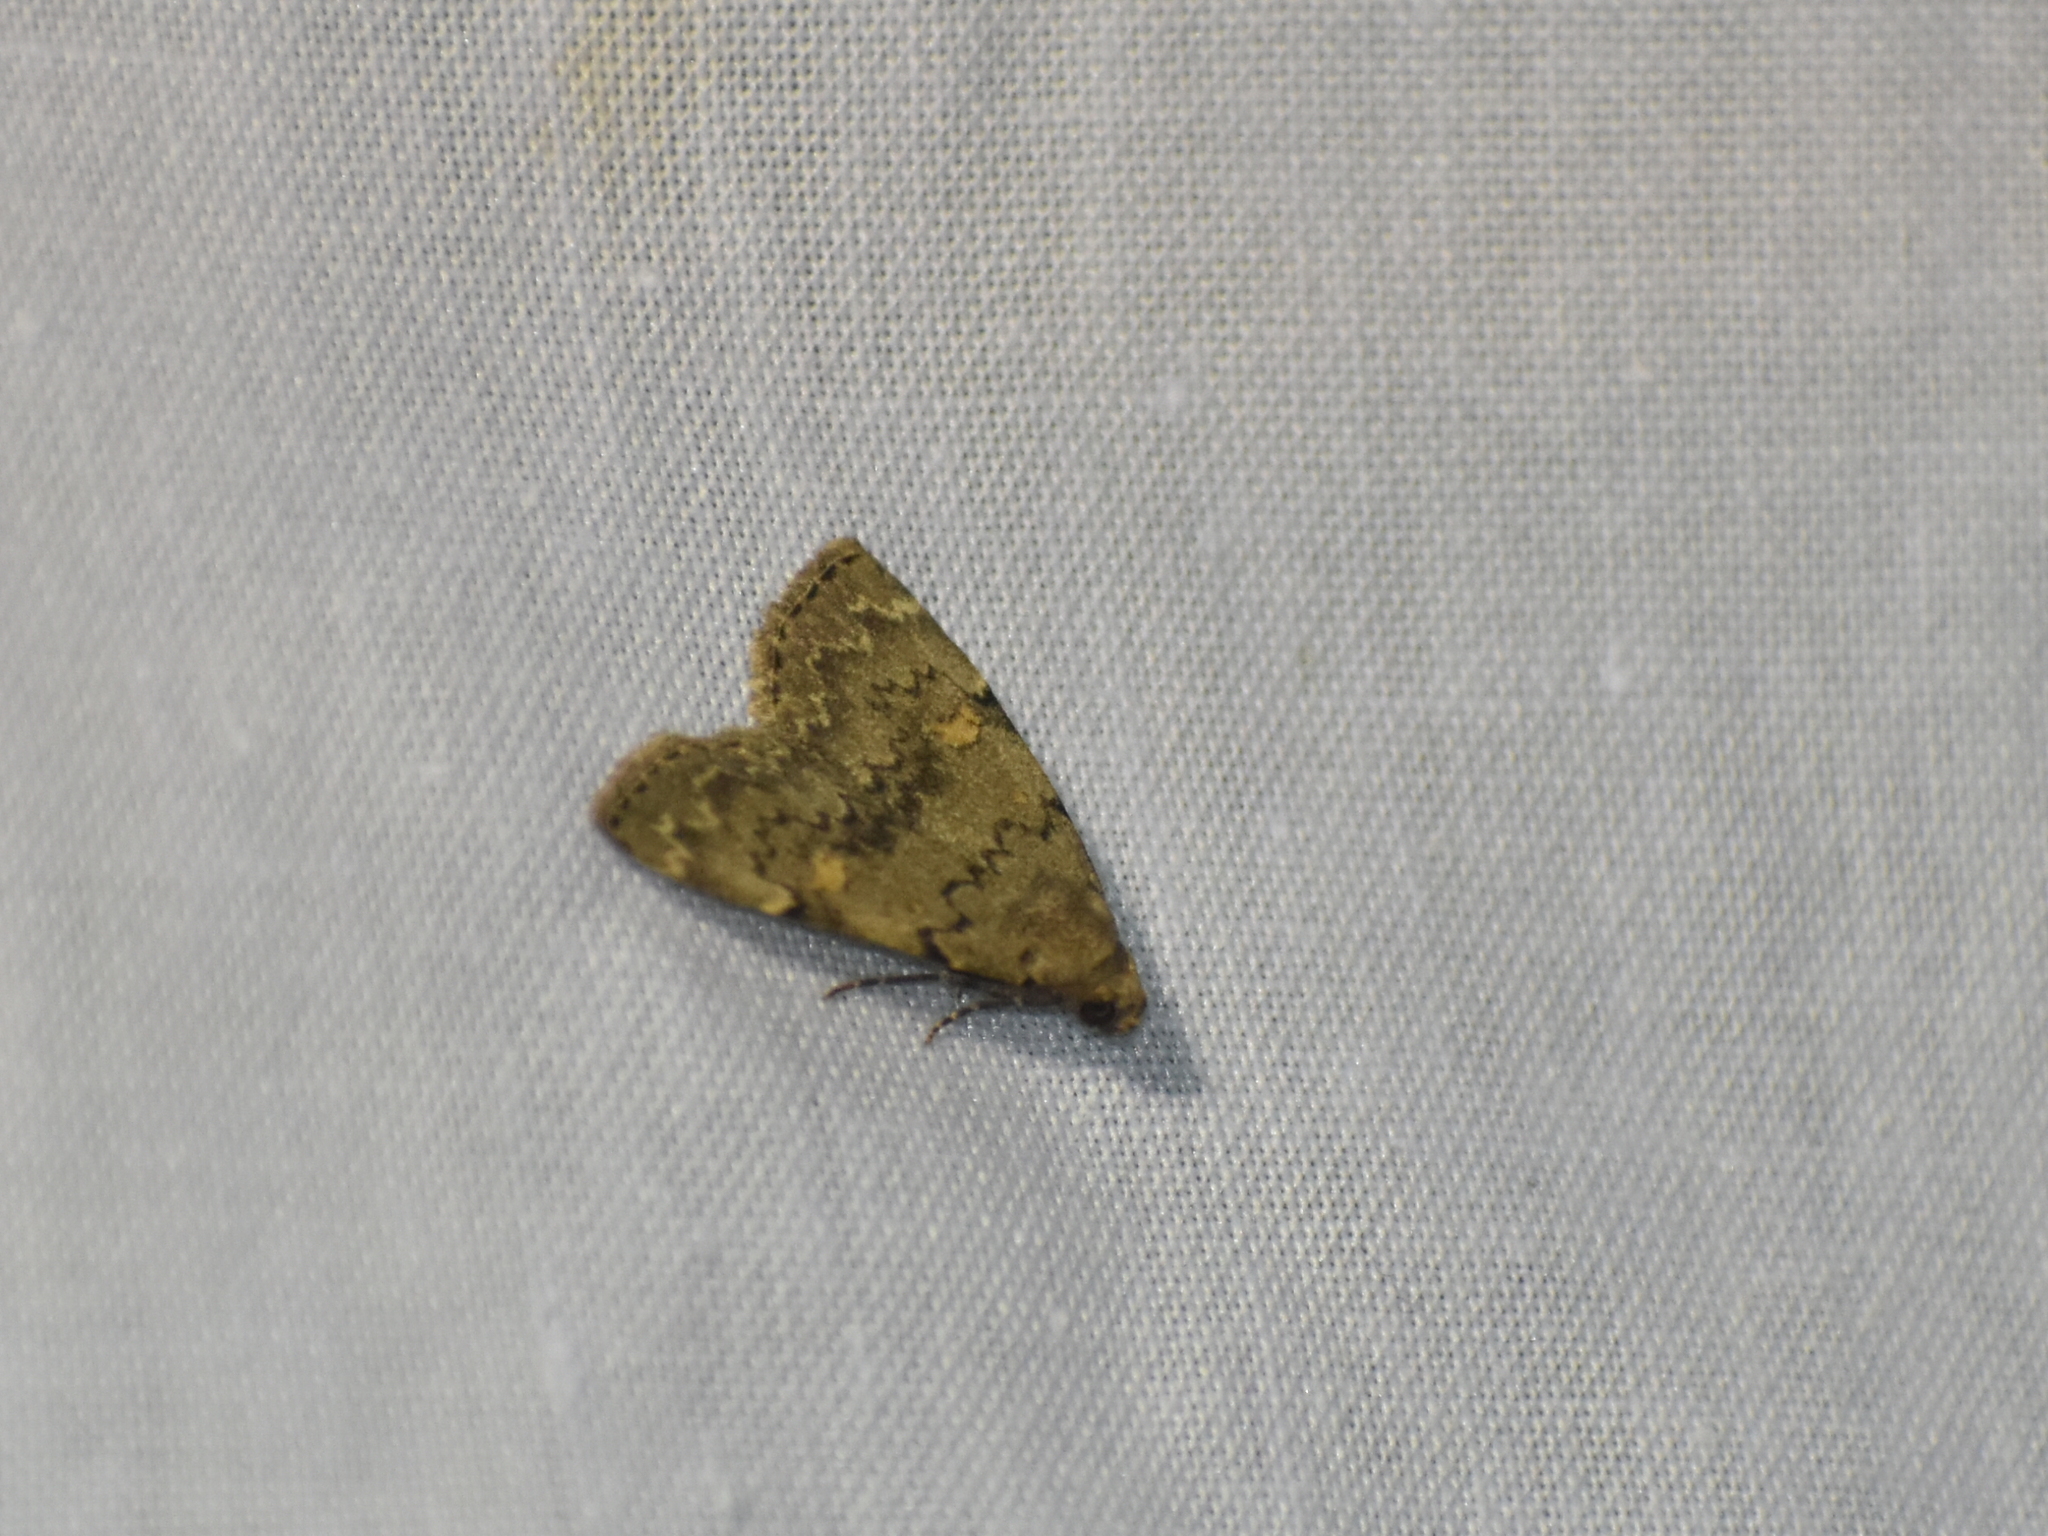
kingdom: Animalia
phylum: Arthropoda
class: Insecta
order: Lepidoptera
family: Erebidae
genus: Idia
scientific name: Idia aemula
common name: Common idia moth
